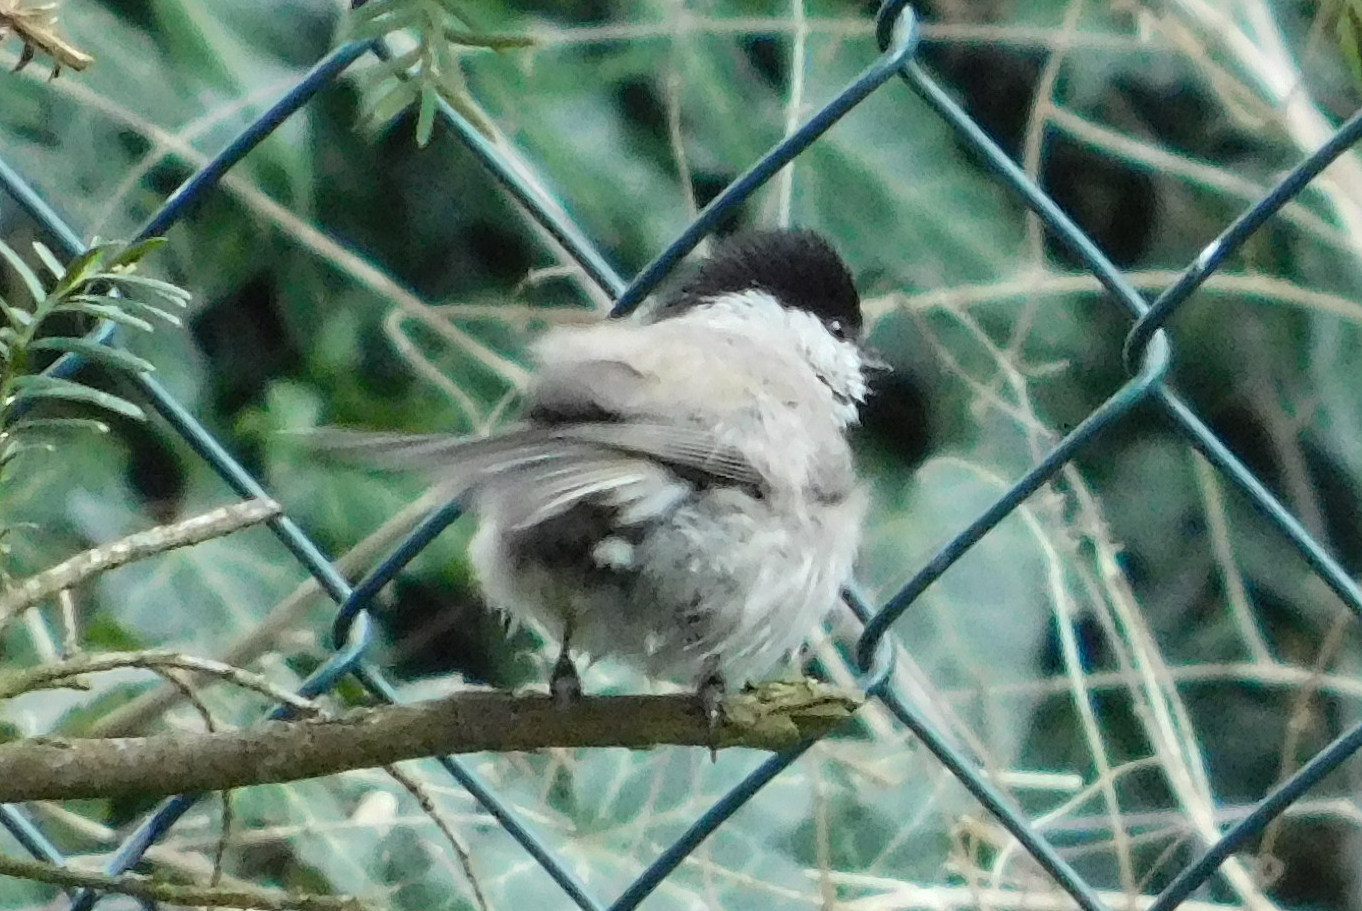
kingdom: Animalia
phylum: Chordata
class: Aves
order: Passeriformes
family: Paridae
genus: Poecile
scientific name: Poecile palustris
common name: Marsh tit
